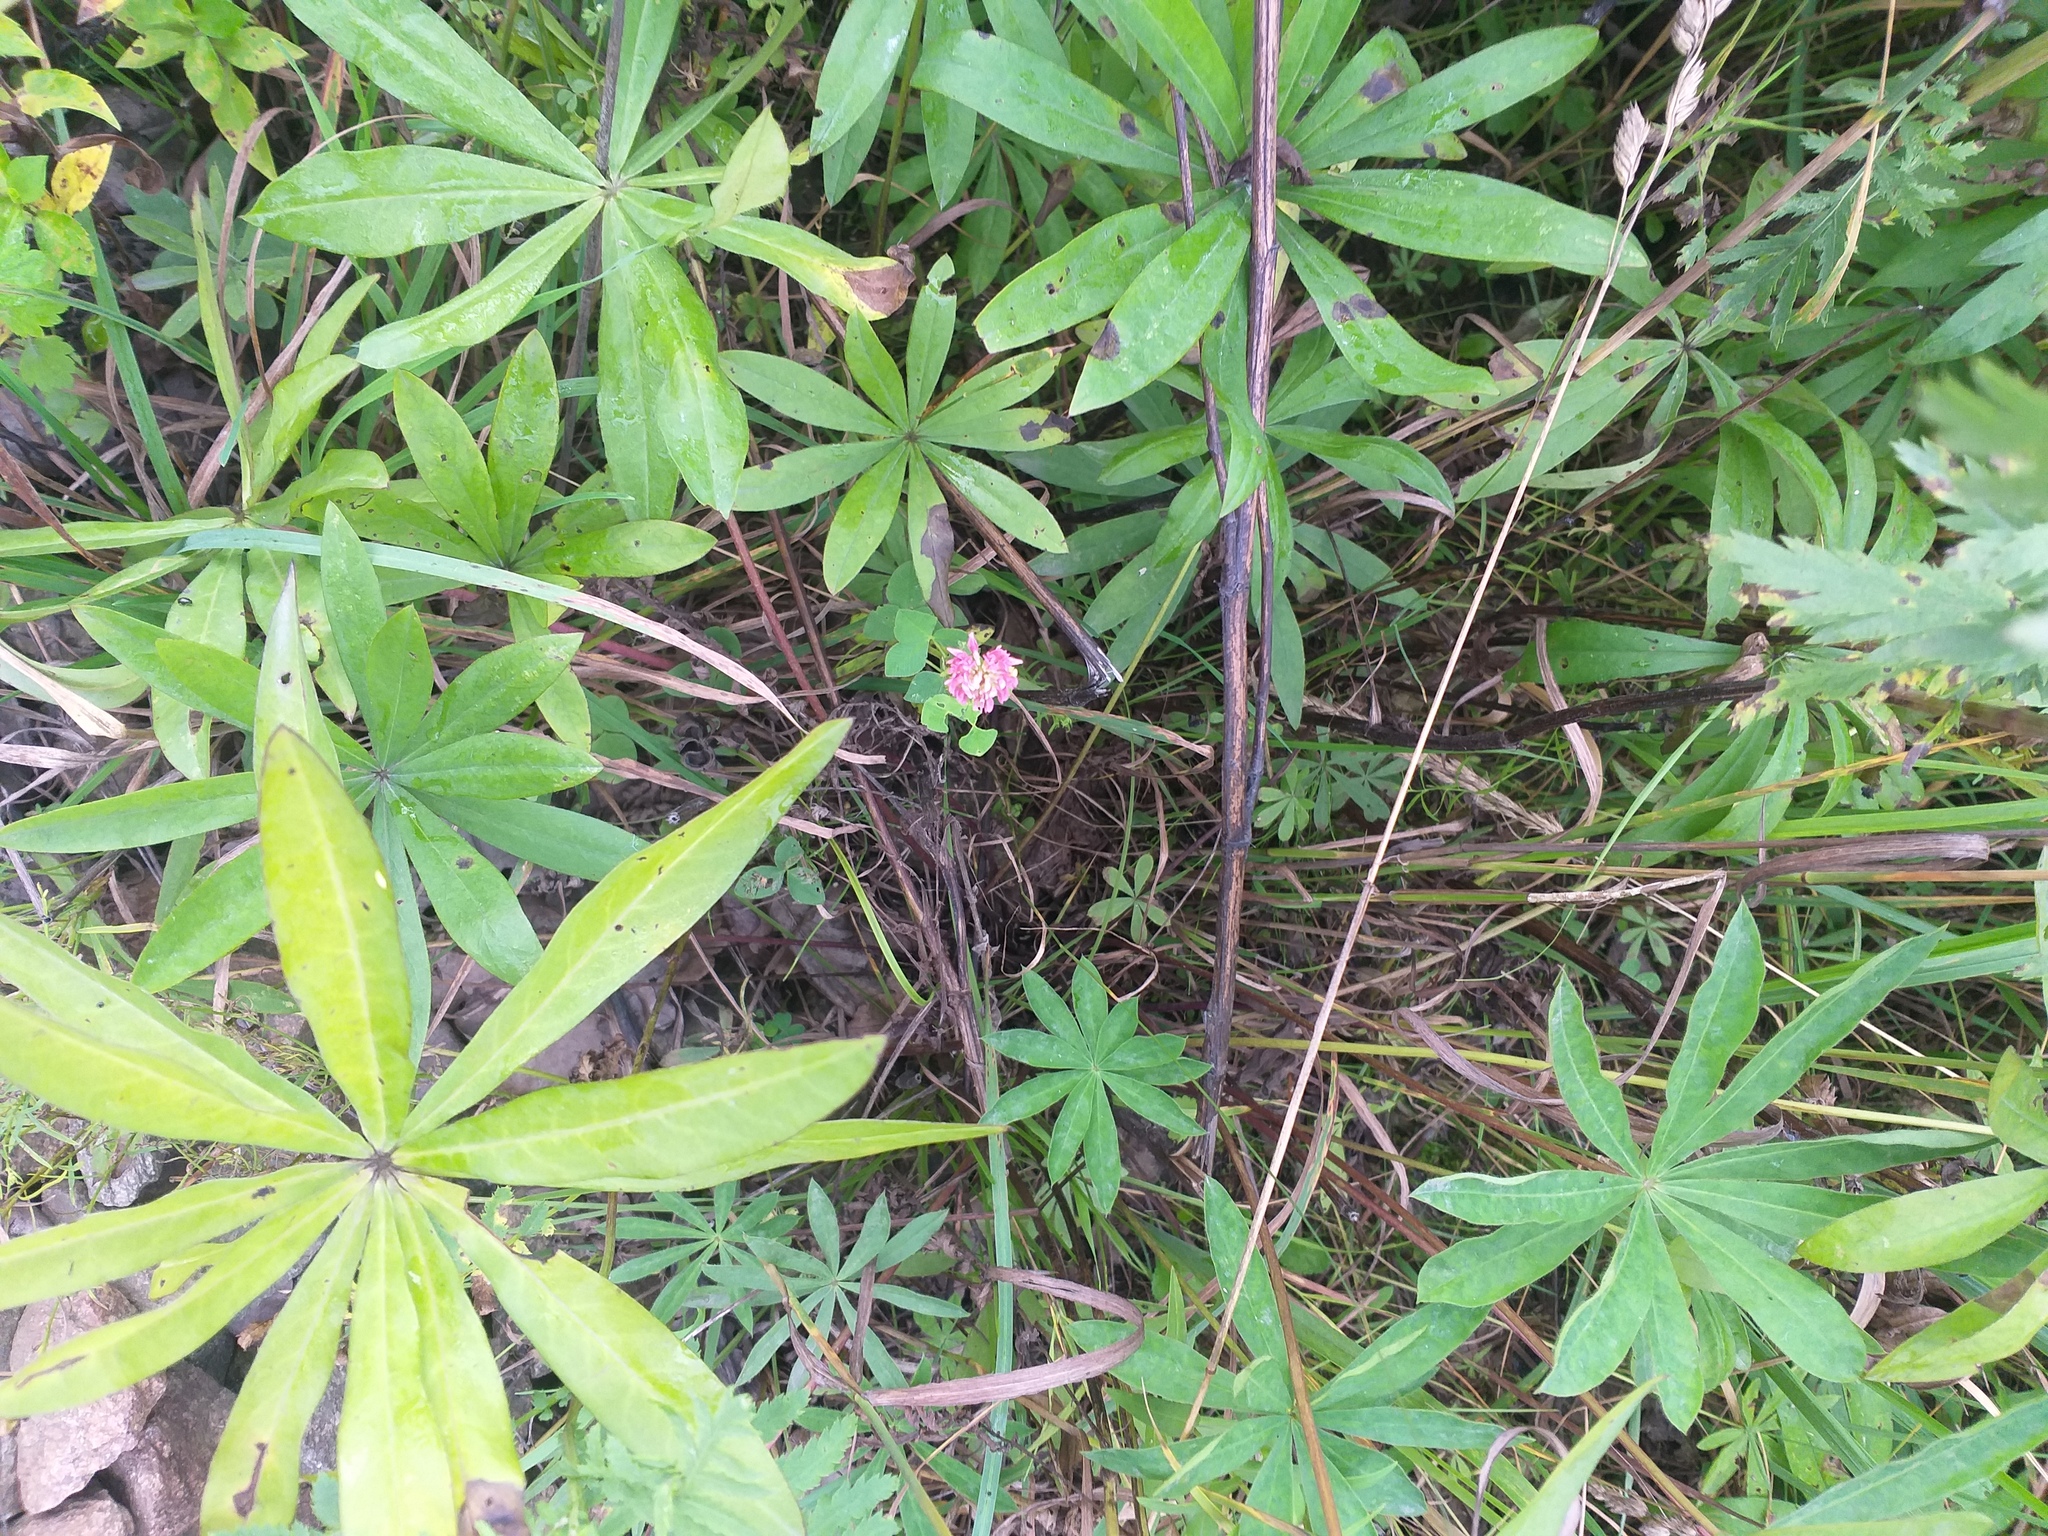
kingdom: Plantae
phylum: Tracheophyta
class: Magnoliopsida
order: Fabales
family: Fabaceae
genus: Trifolium
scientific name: Trifolium hybridum
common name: Alsike clover
